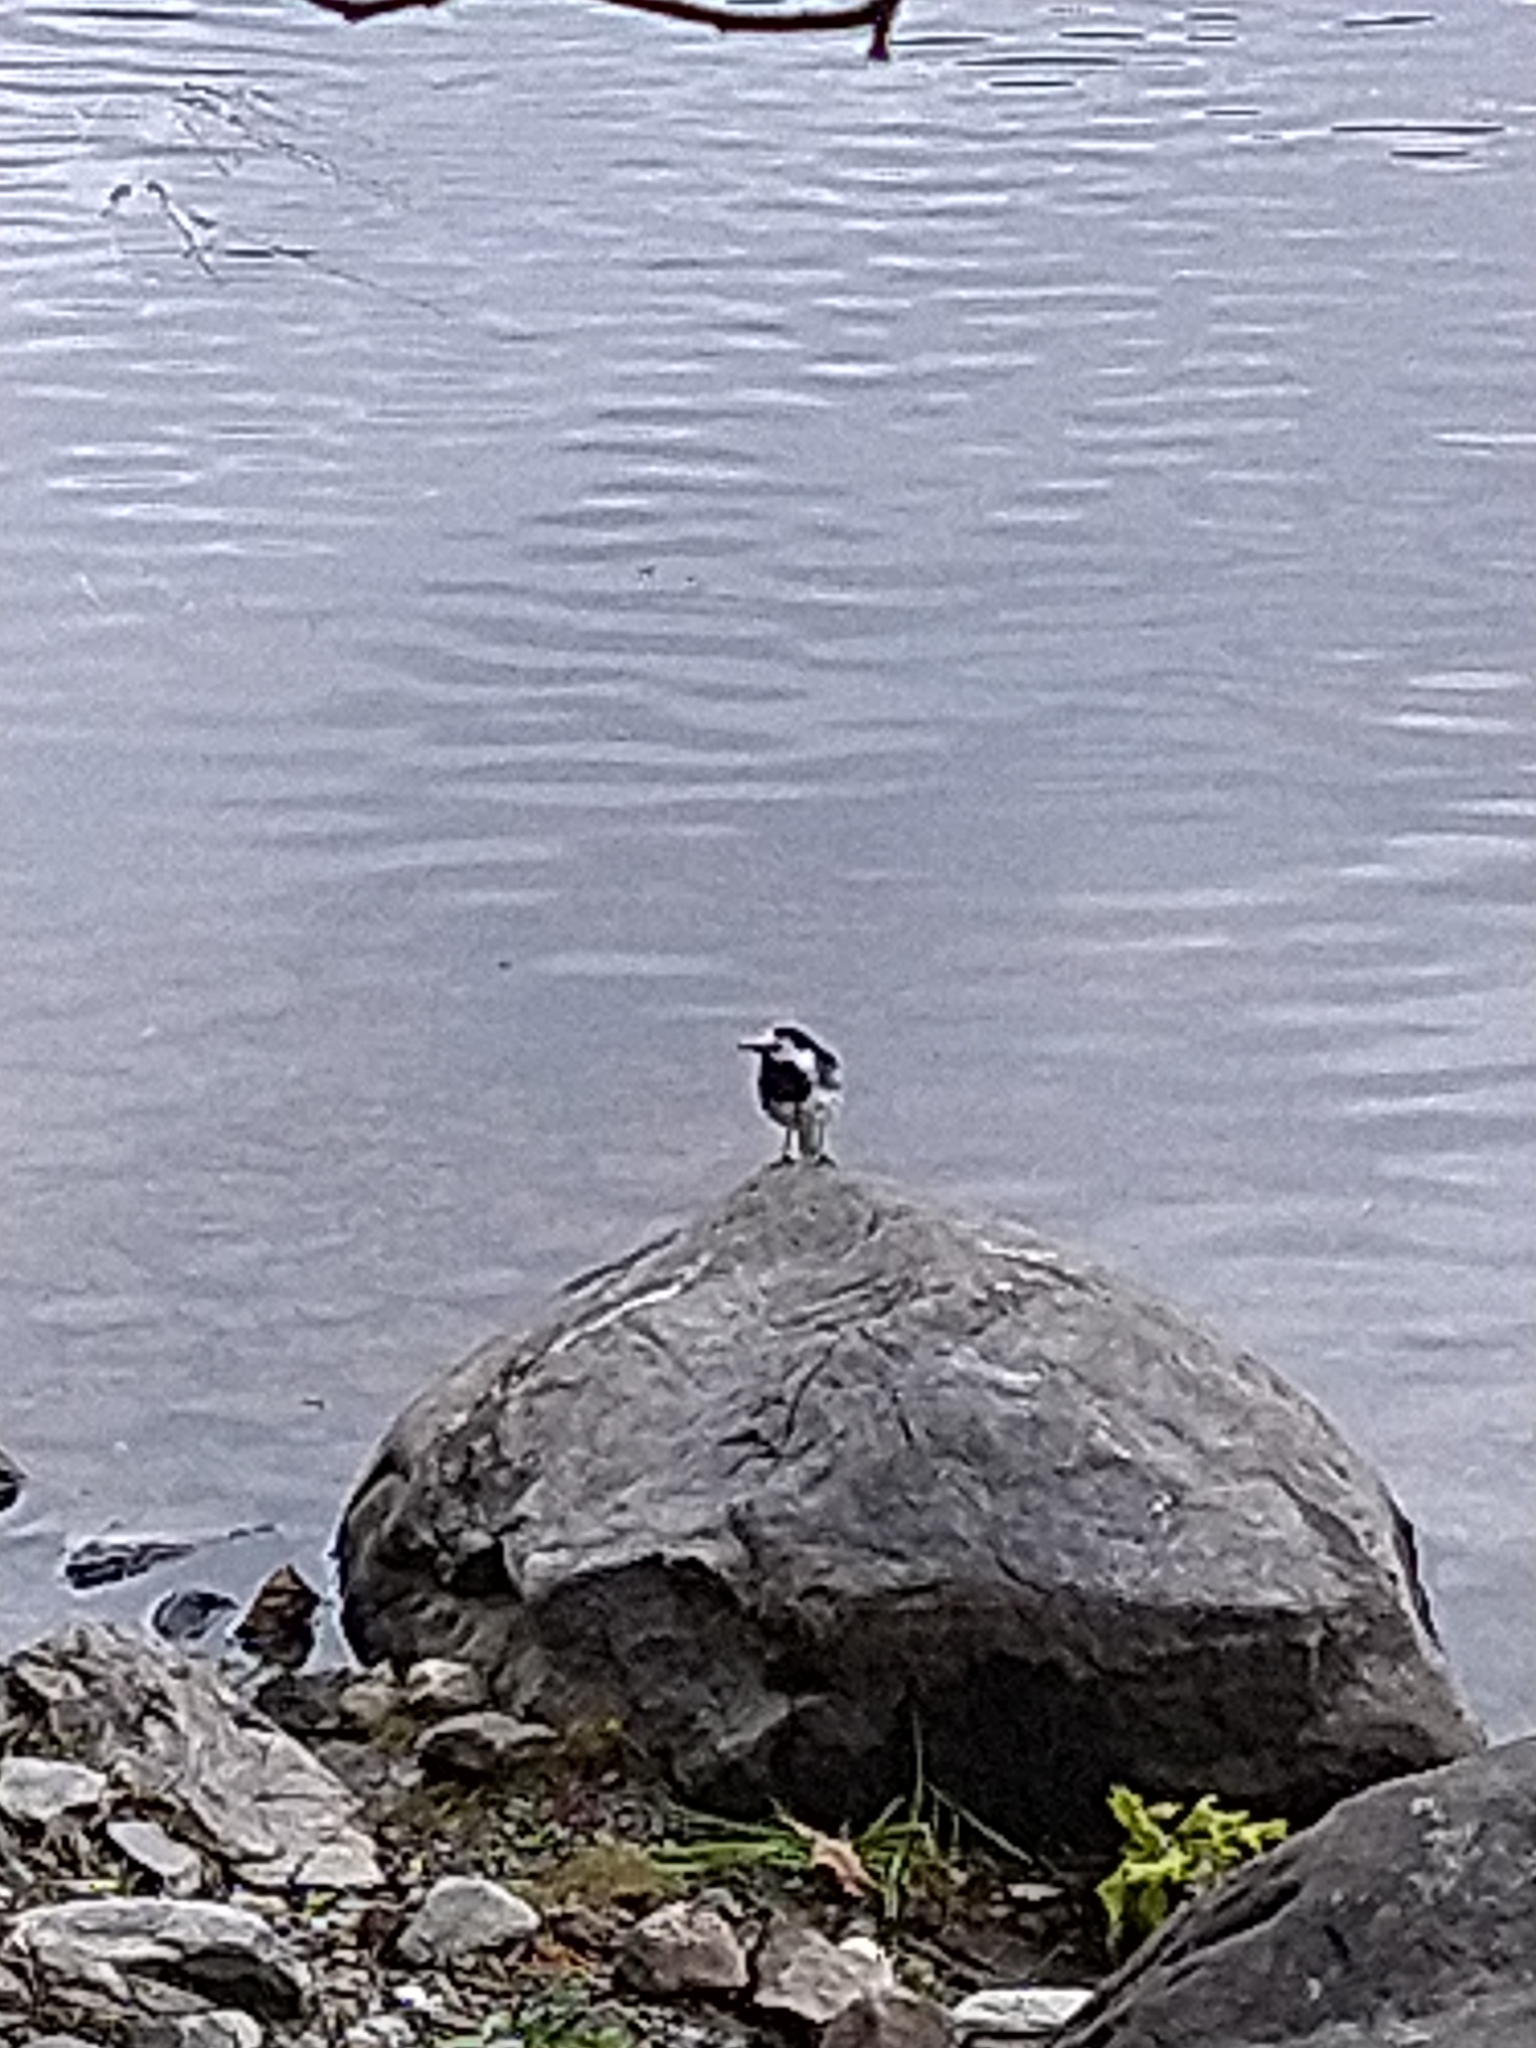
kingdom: Animalia
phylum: Chordata
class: Aves
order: Passeriformes
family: Motacillidae
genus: Motacilla
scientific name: Motacilla alba
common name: White wagtail
